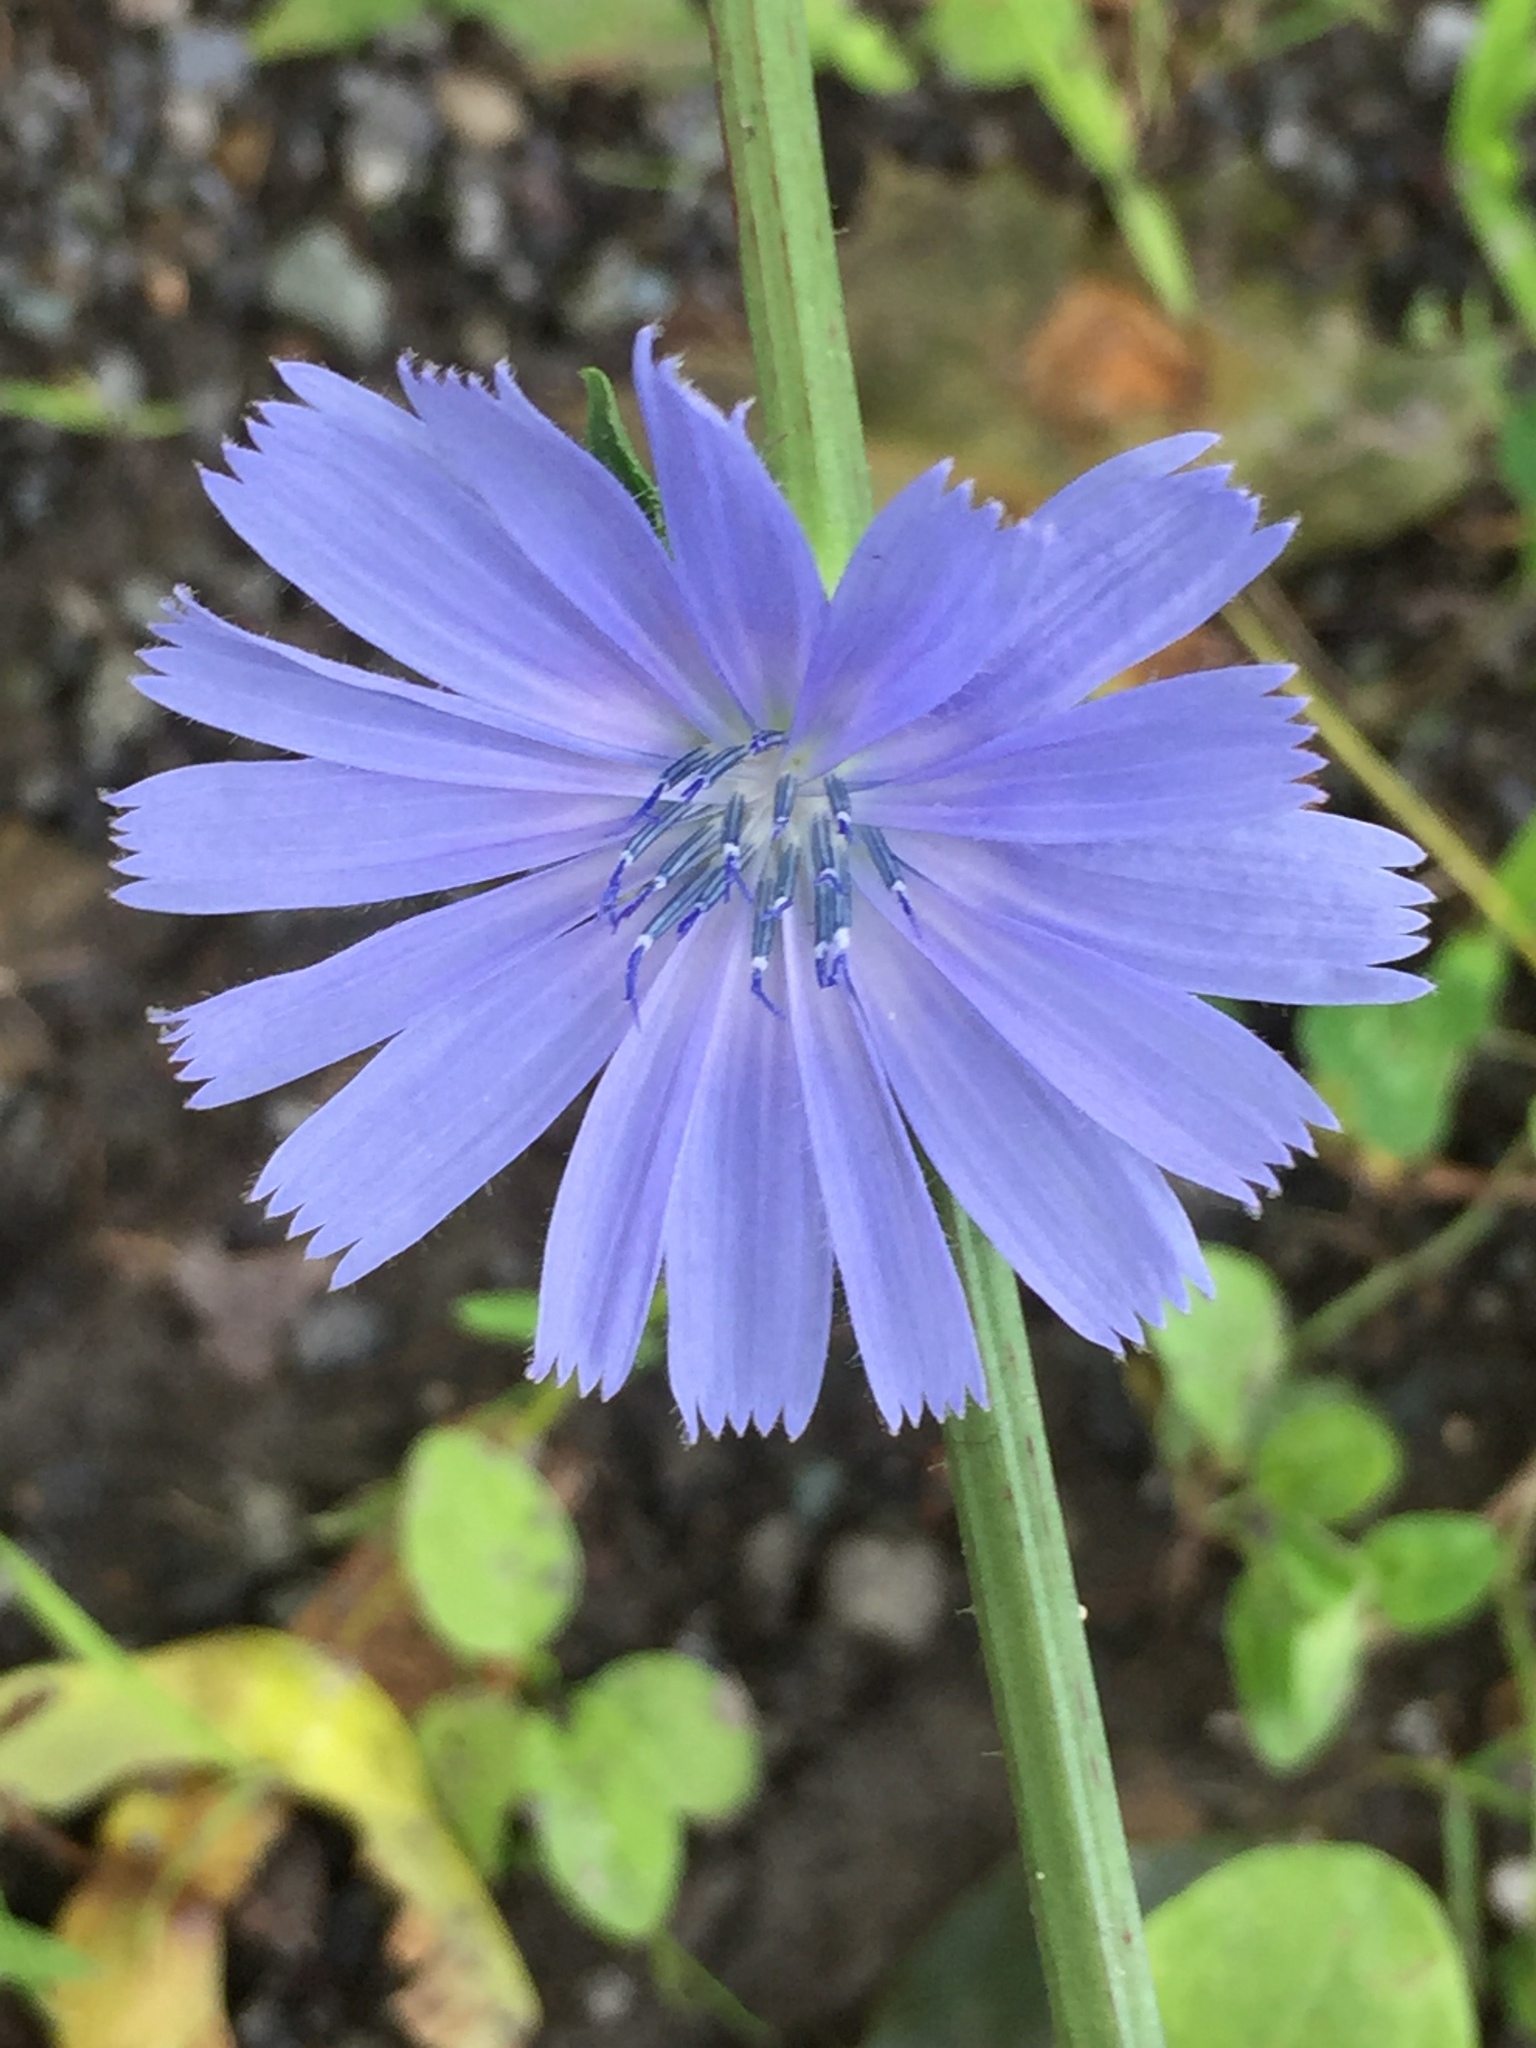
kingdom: Plantae
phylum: Tracheophyta
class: Magnoliopsida
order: Asterales
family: Asteraceae
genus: Cichorium
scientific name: Cichorium intybus
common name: Chicory
